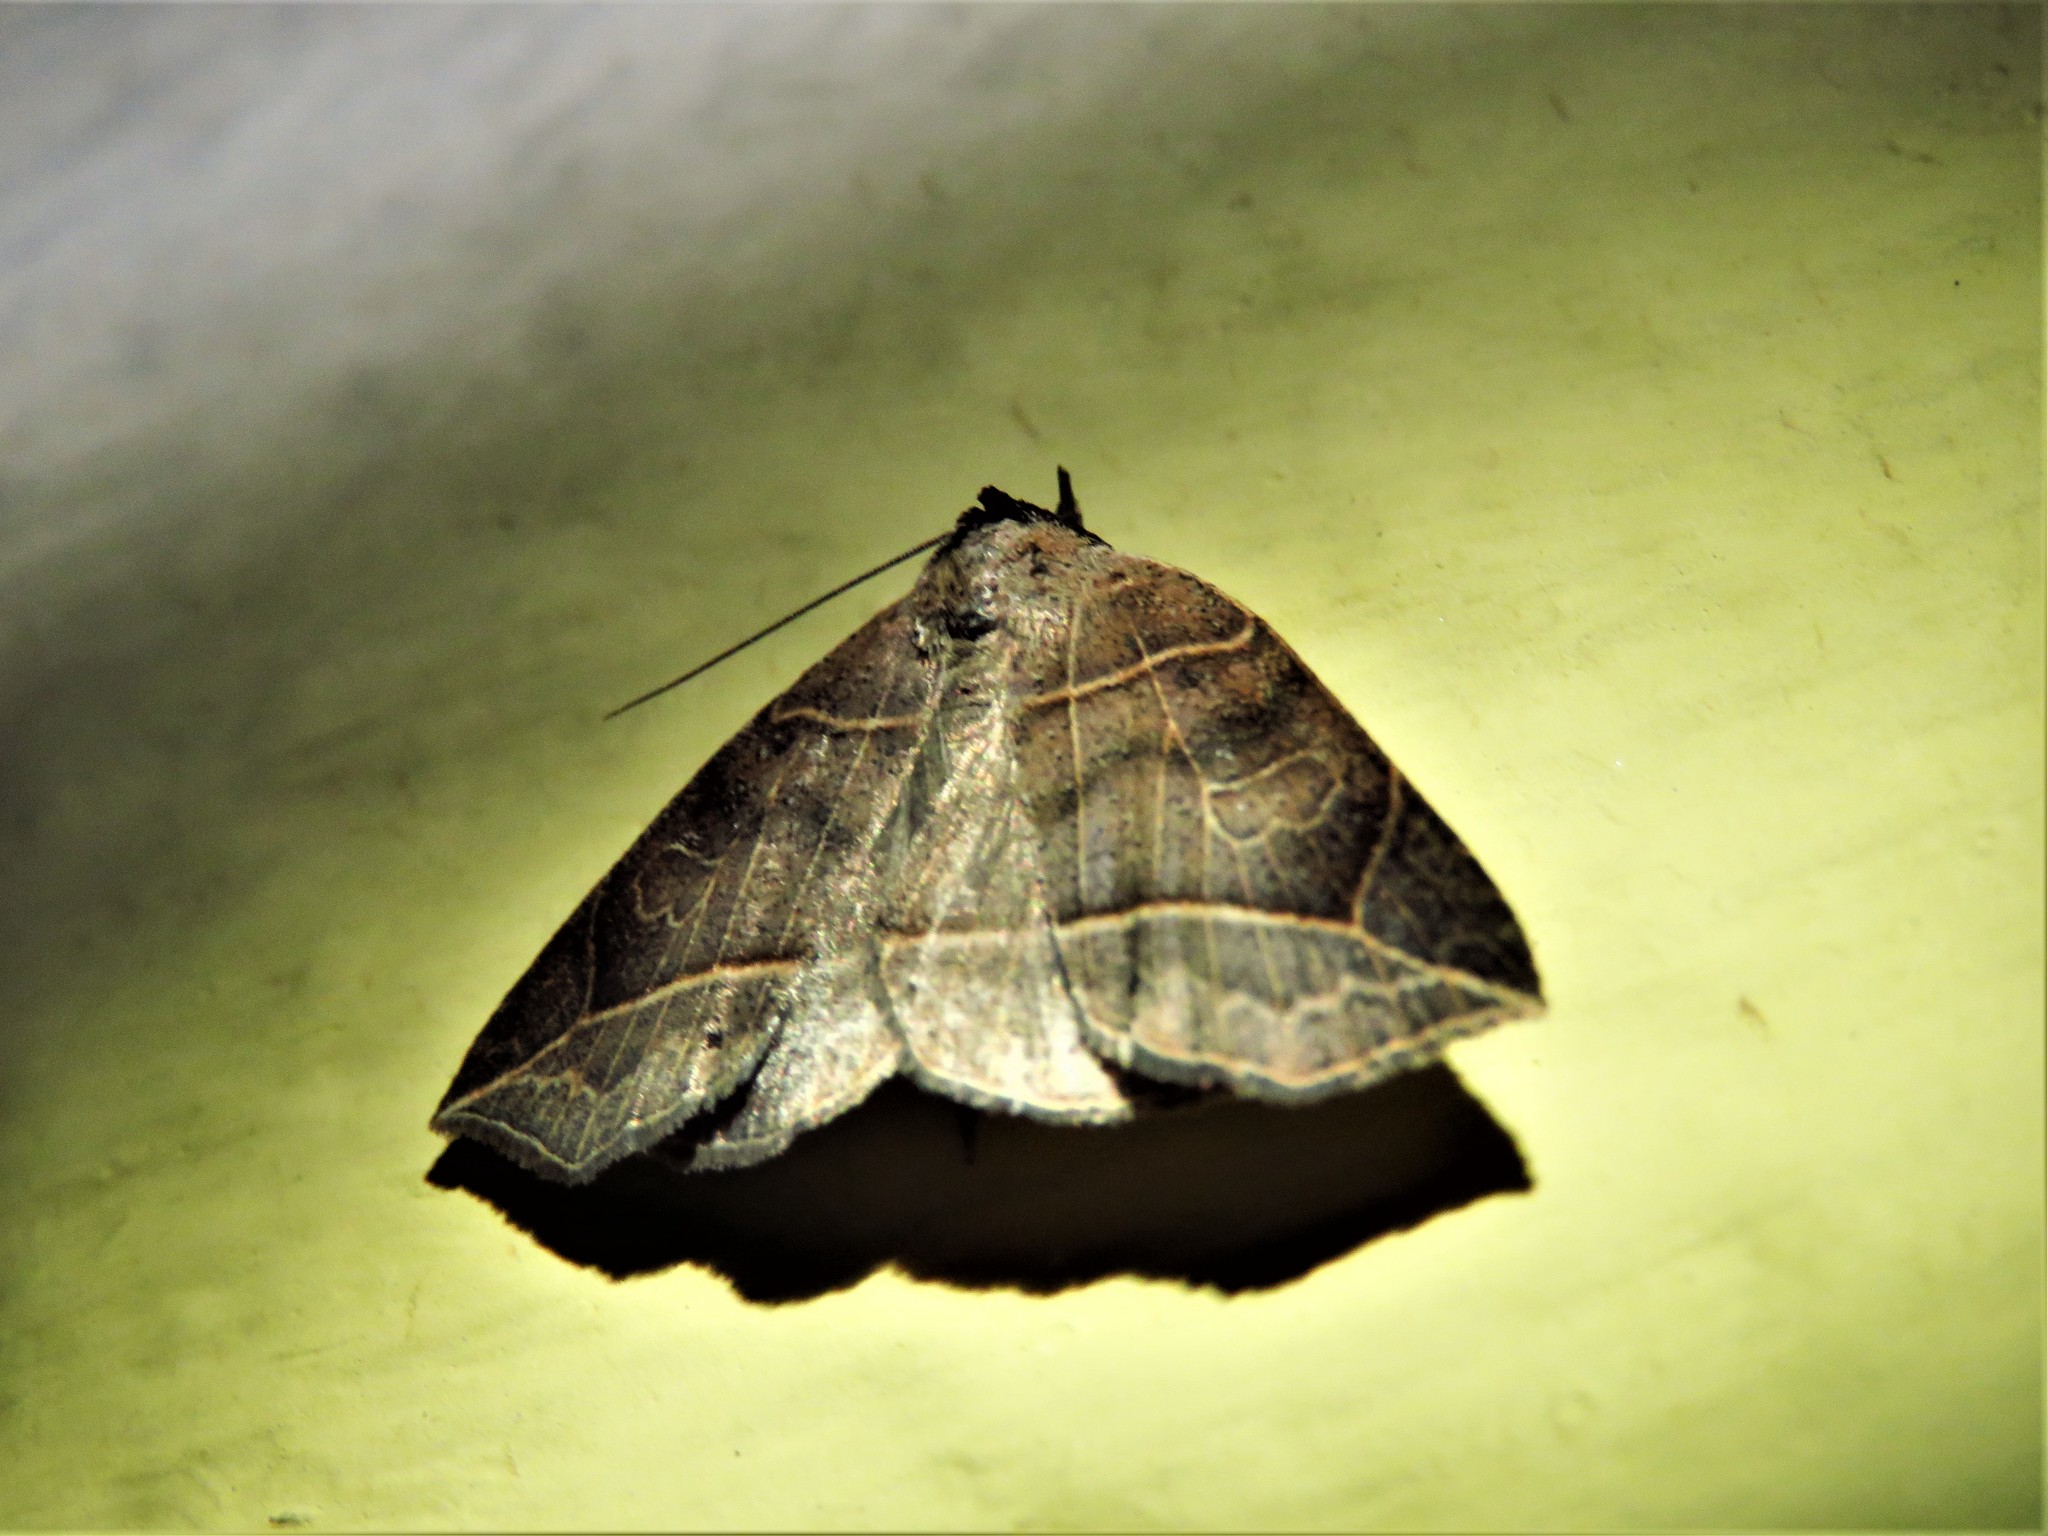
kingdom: Animalia
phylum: Arthropoda
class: Insecta
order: Lepidoptera
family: Erebidae
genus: Isogona
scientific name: Isogona tenuis
